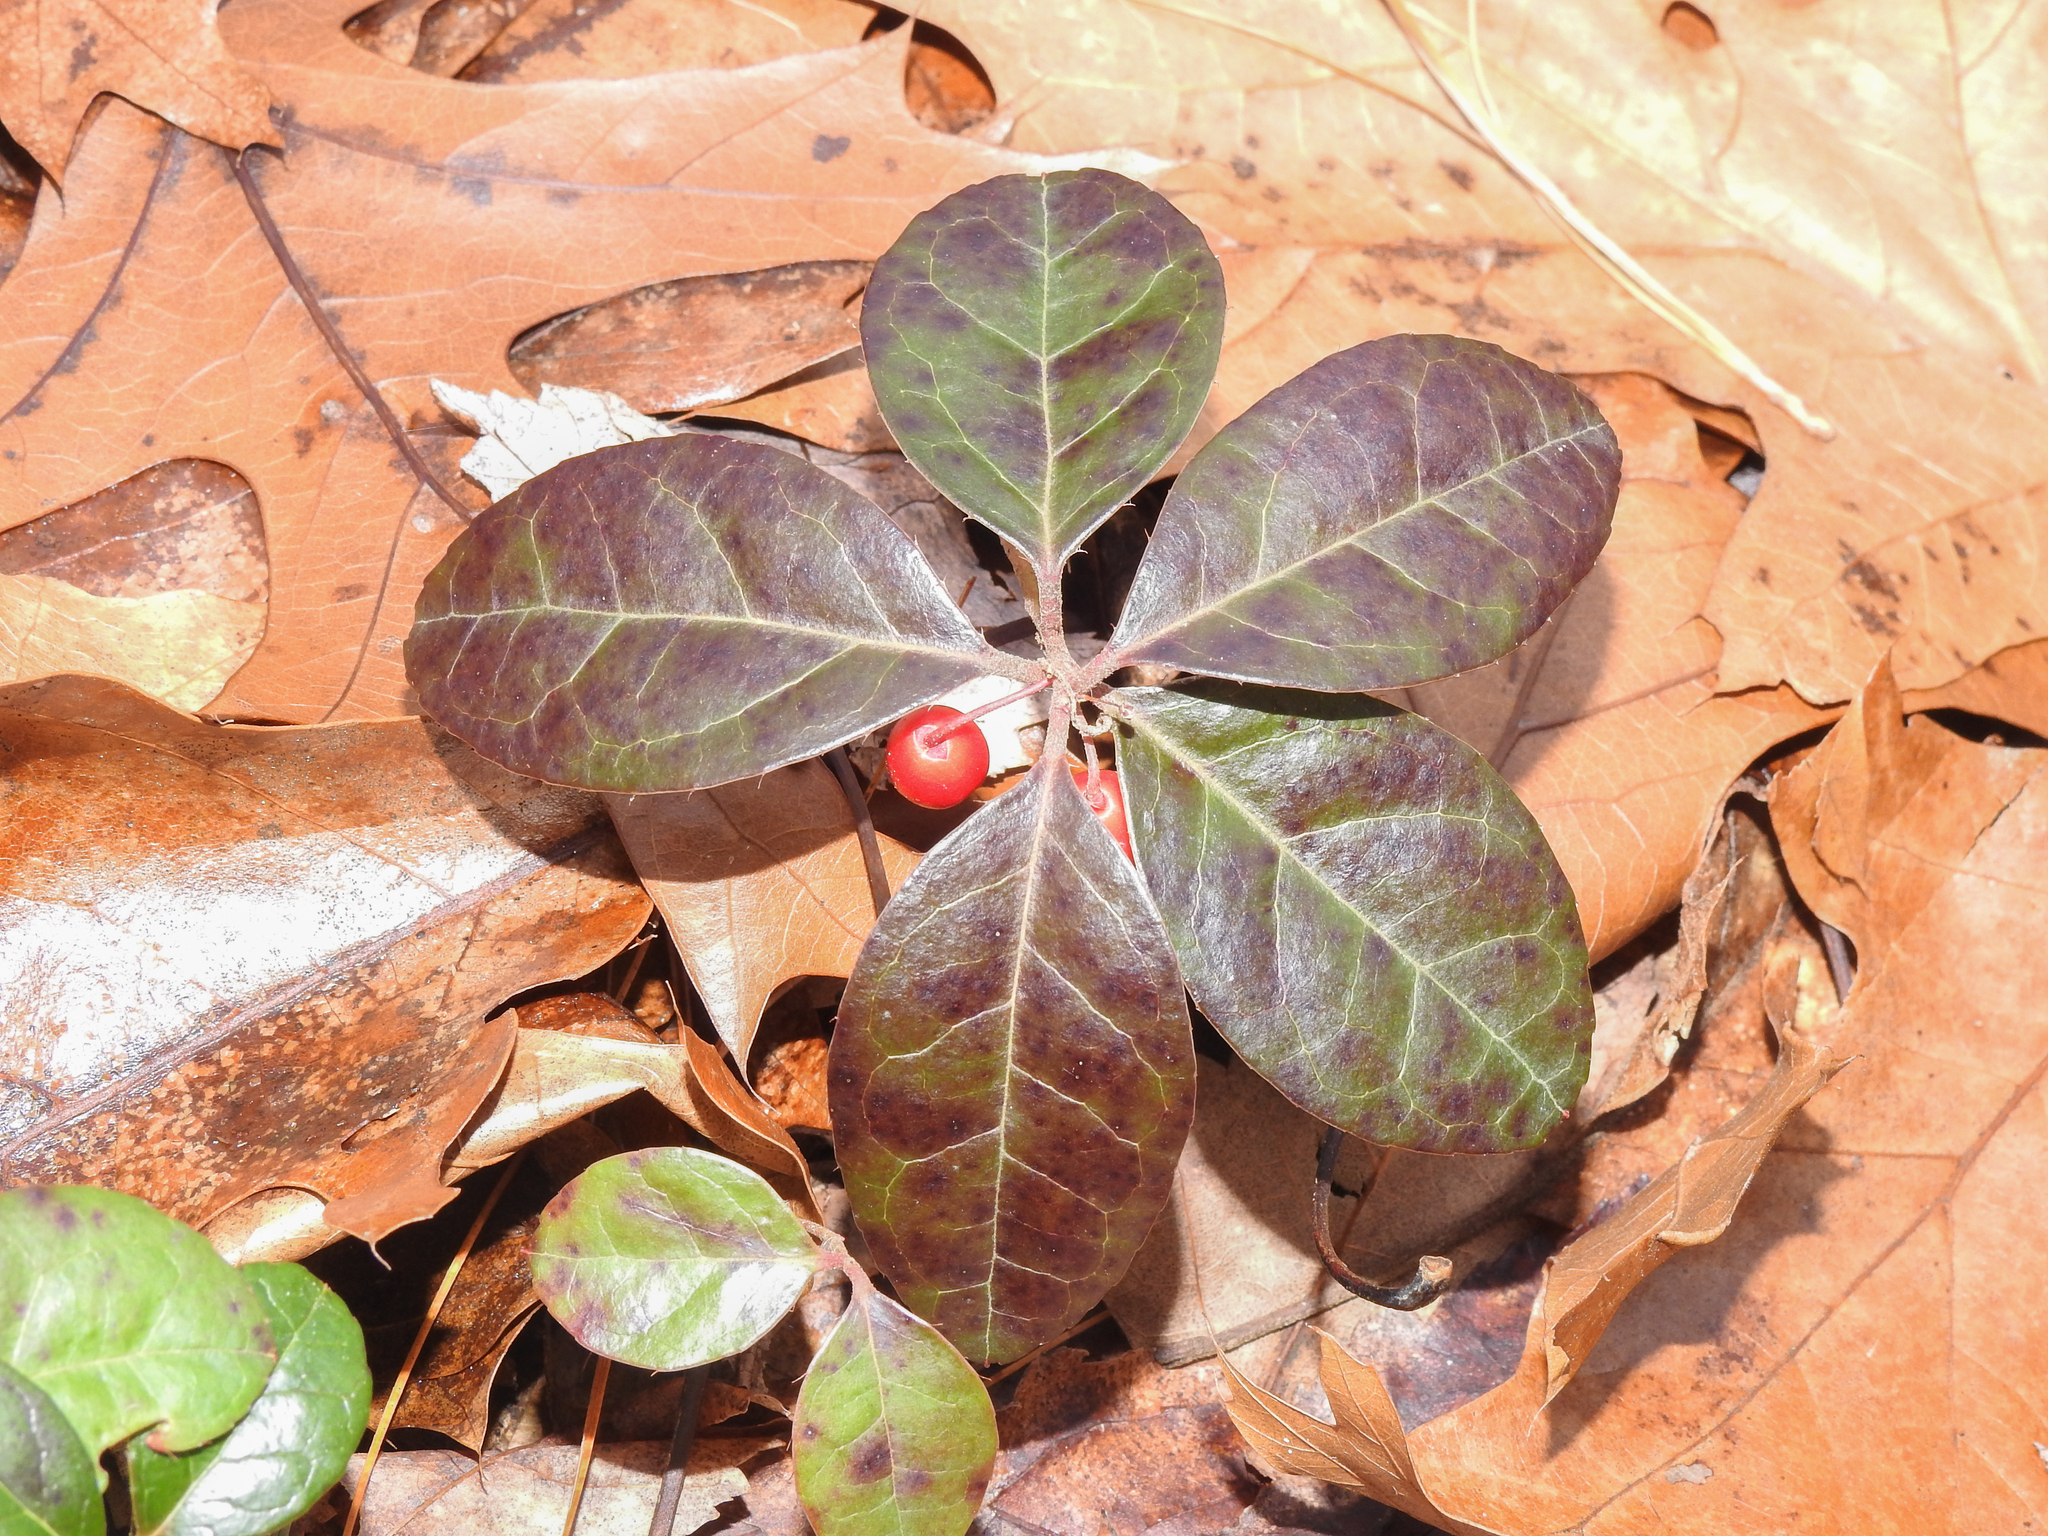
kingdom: Plantae
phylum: Tracheophyta
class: Magnoliopsida
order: Ericales
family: Ericaceae
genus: Gaultheria
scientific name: Gaultheria procumbens
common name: Checkerberry
